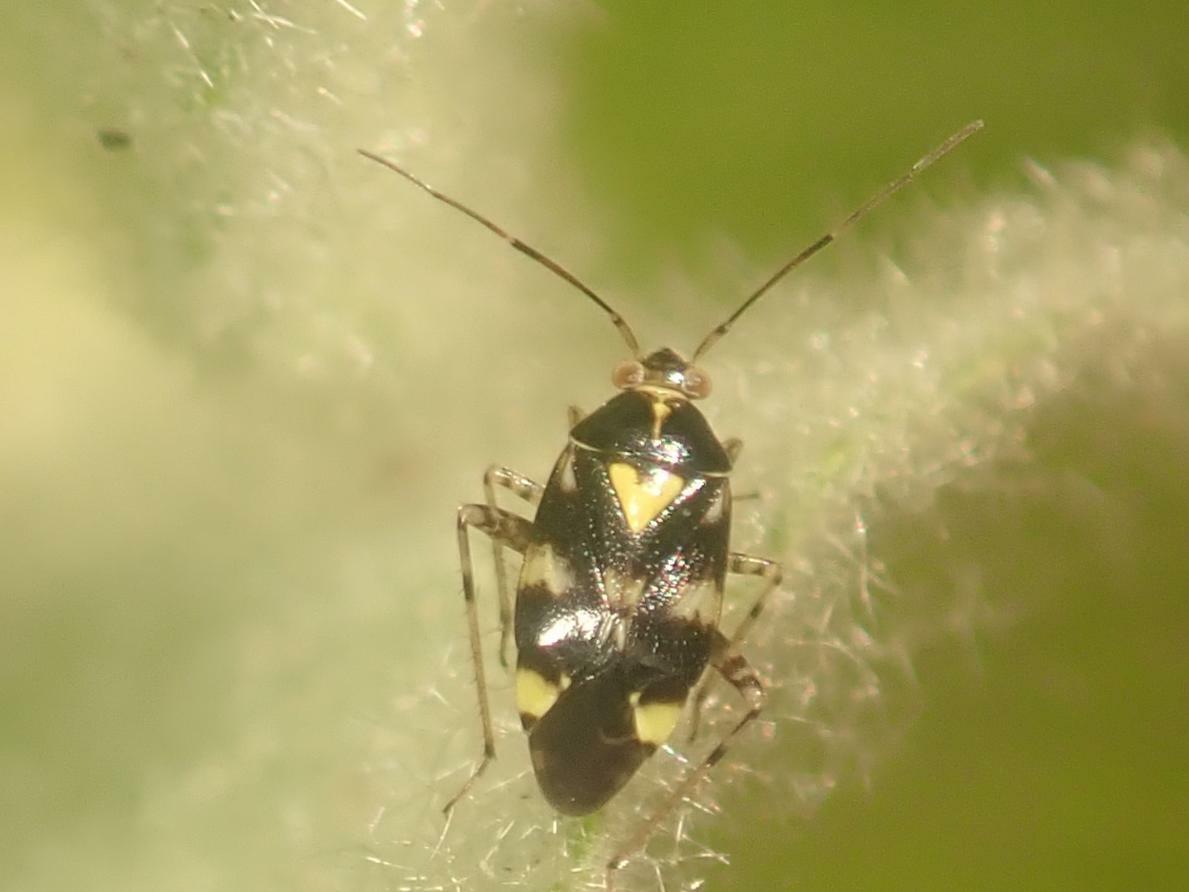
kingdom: Animalia
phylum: Arthropoda
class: Insecta
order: Hemiptera
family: Miridae
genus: Liocoris
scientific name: Liocoris tripustulatus
